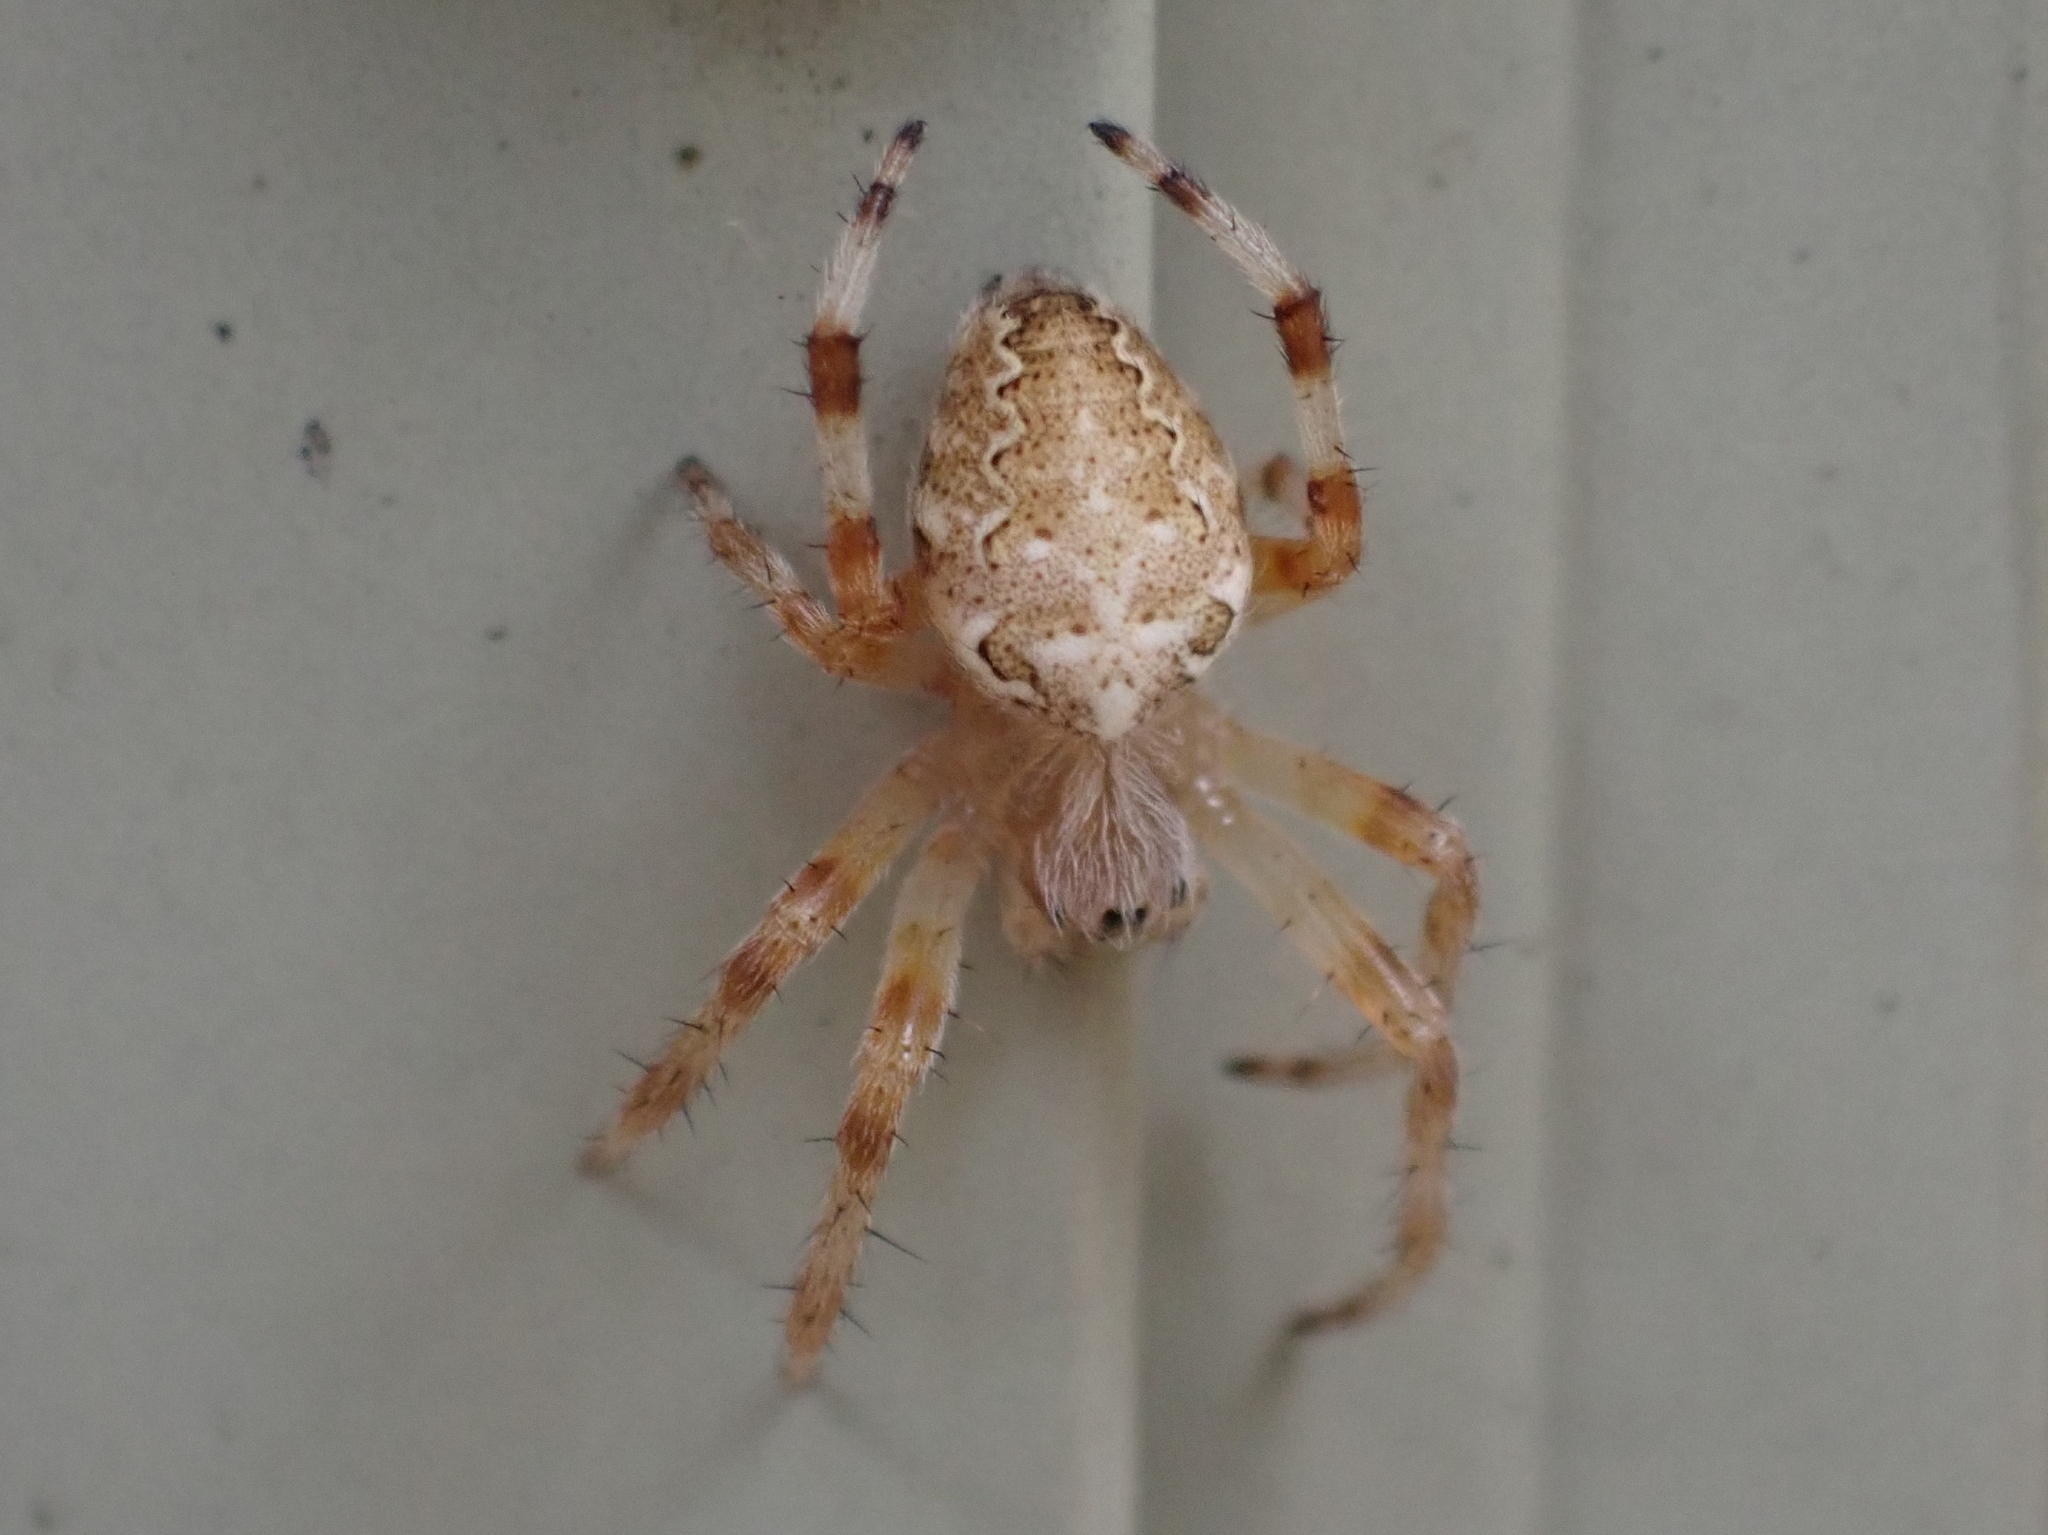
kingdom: Animalia
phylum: Arthropoda
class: Arachnida
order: Araneae
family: Araneidae
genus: Araneus
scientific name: Araneus marmoreus
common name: Marbled orbweaver
